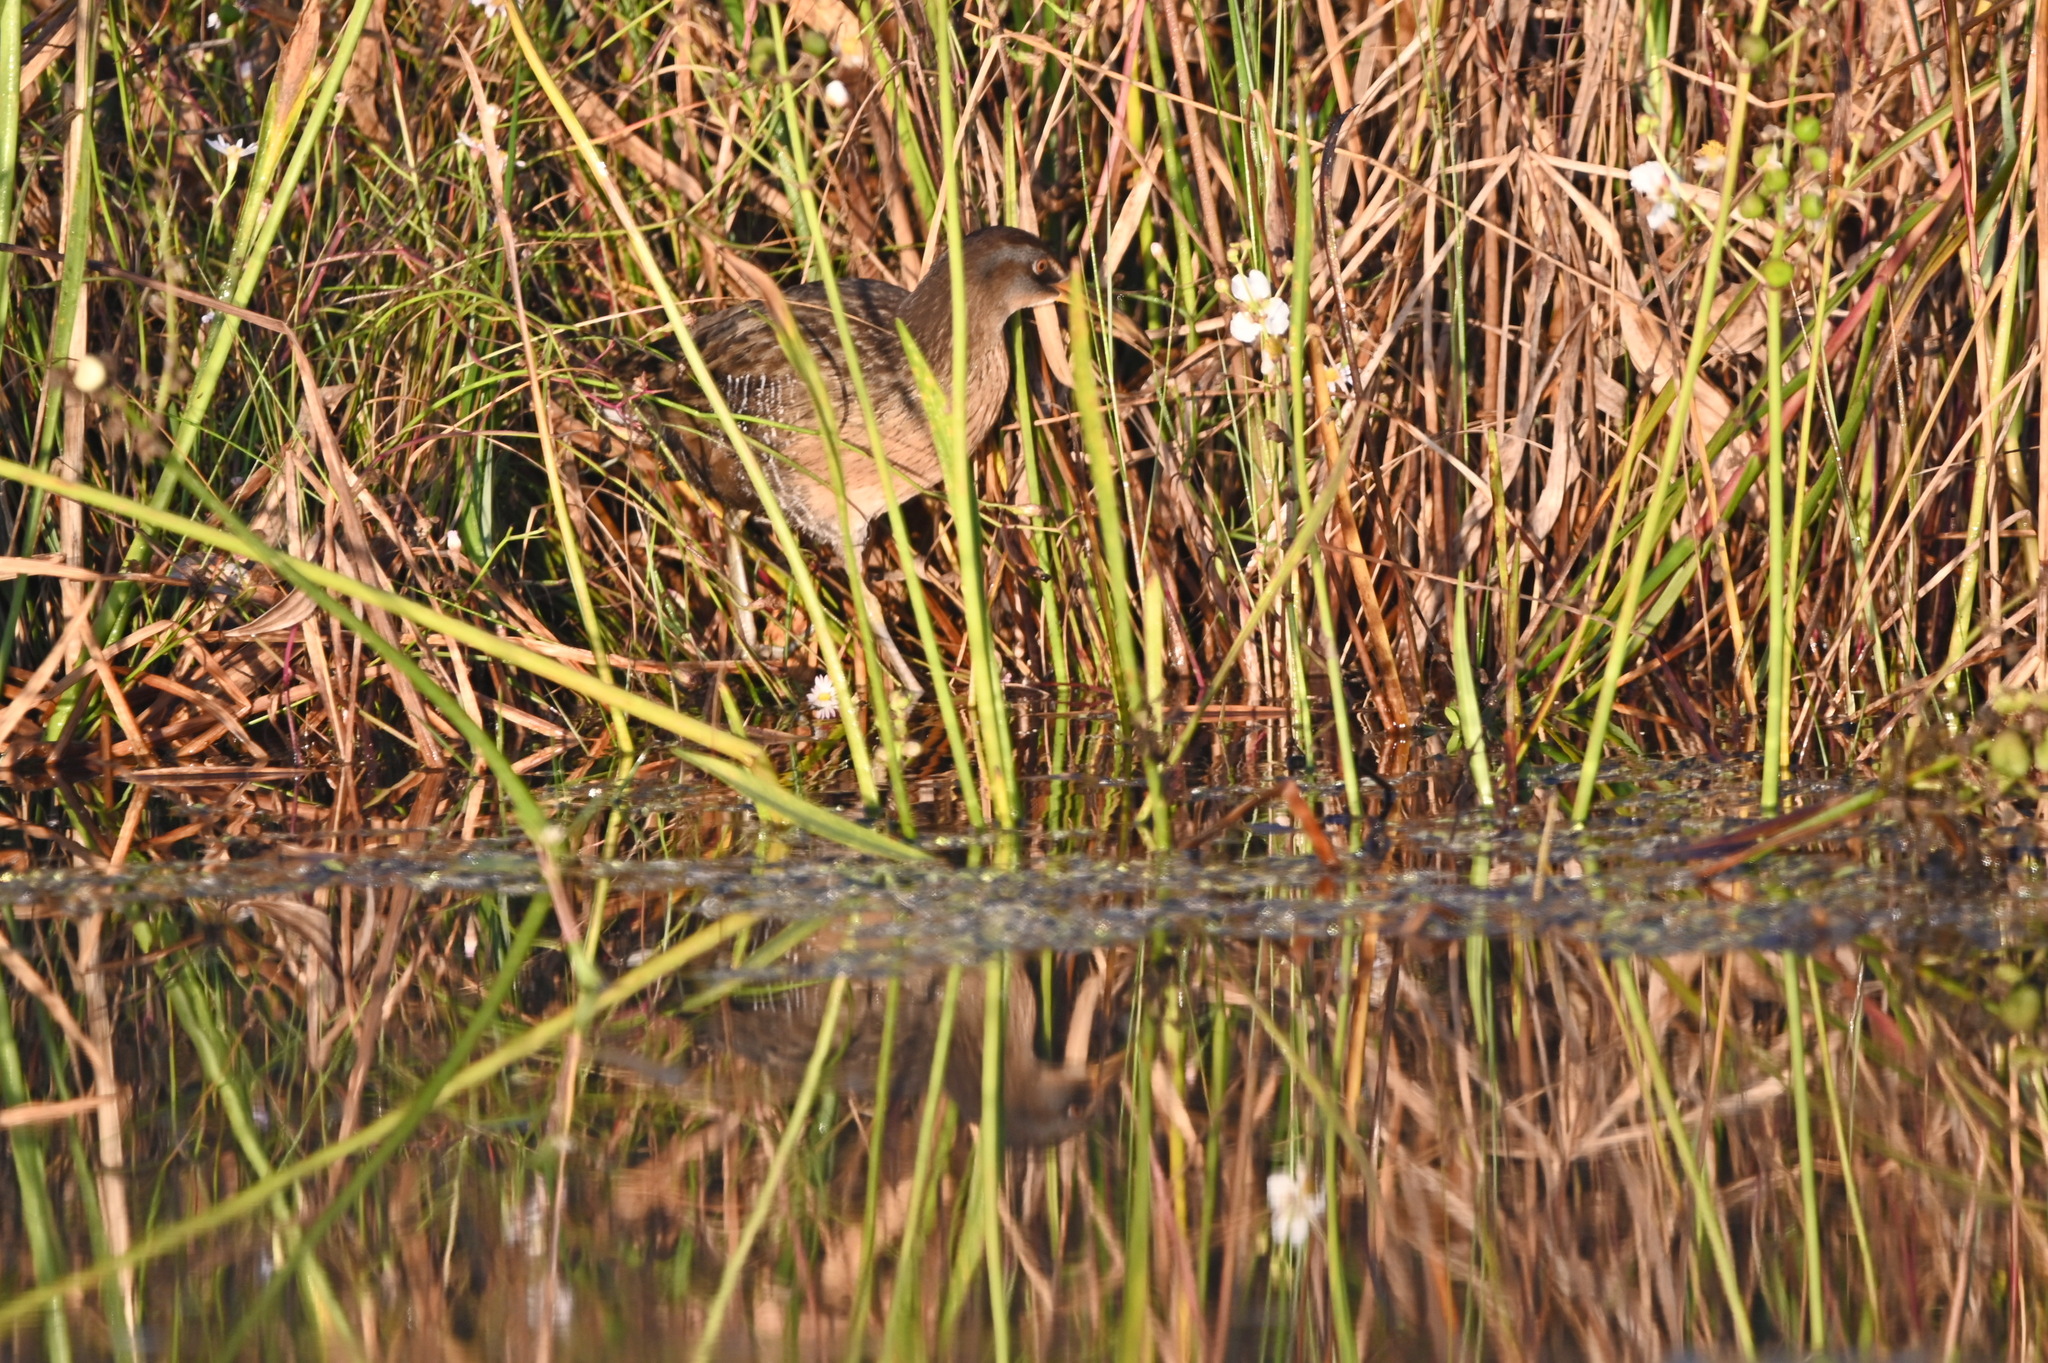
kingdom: Animalia
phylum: Chordata
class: Aves
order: Gruiformes
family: Rallidae
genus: Rallus
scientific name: Rallus crepitans
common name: Clapper rail
